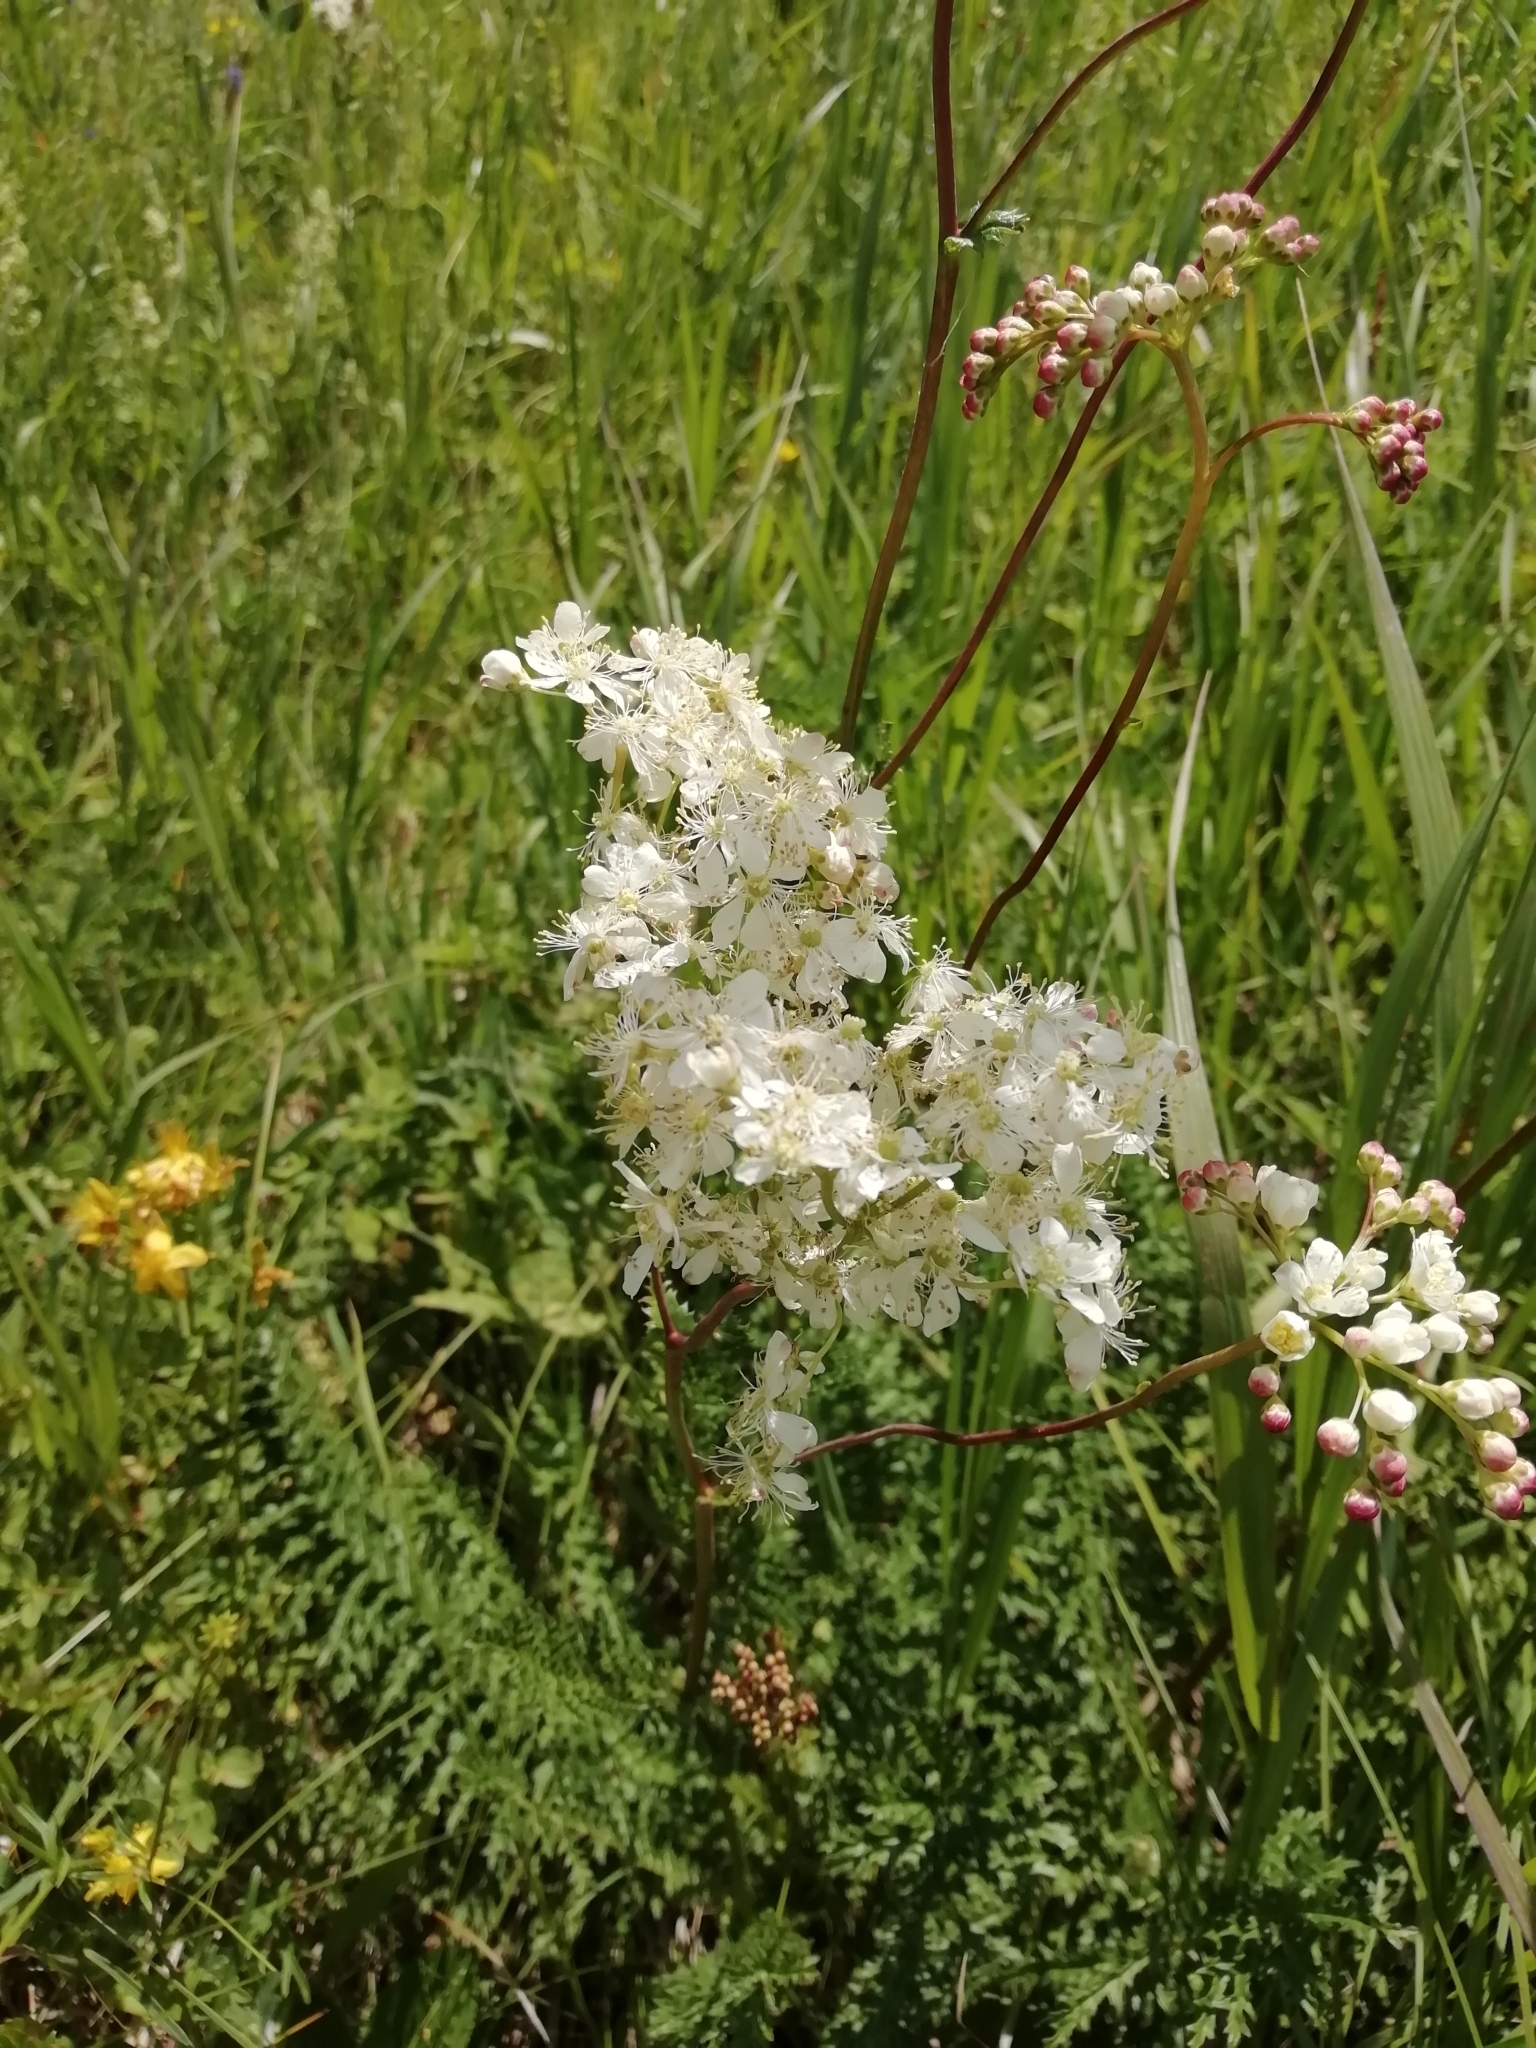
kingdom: Plantae
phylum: Tracheophyta
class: Magnoliopsida
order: Rosales
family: Rosaceae
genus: Filipendula
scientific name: Filipendula vulgaris
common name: Dropwort
